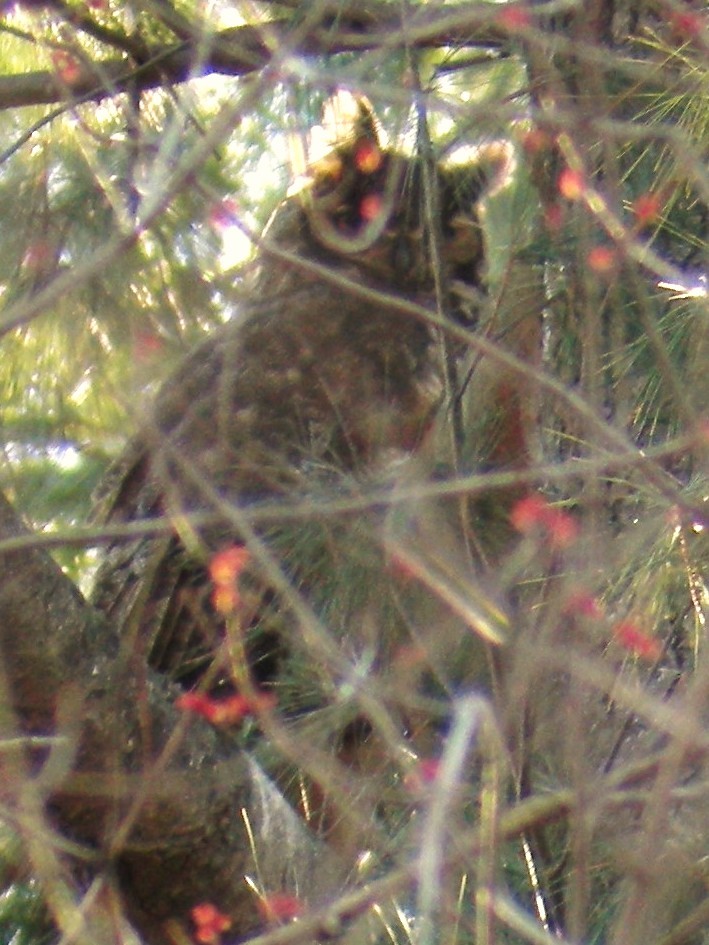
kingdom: Animalia
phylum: Chordata
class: Aves
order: Strigiformes
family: Strigidae
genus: Bubo
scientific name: Bubo virginianus
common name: Great horned owl
